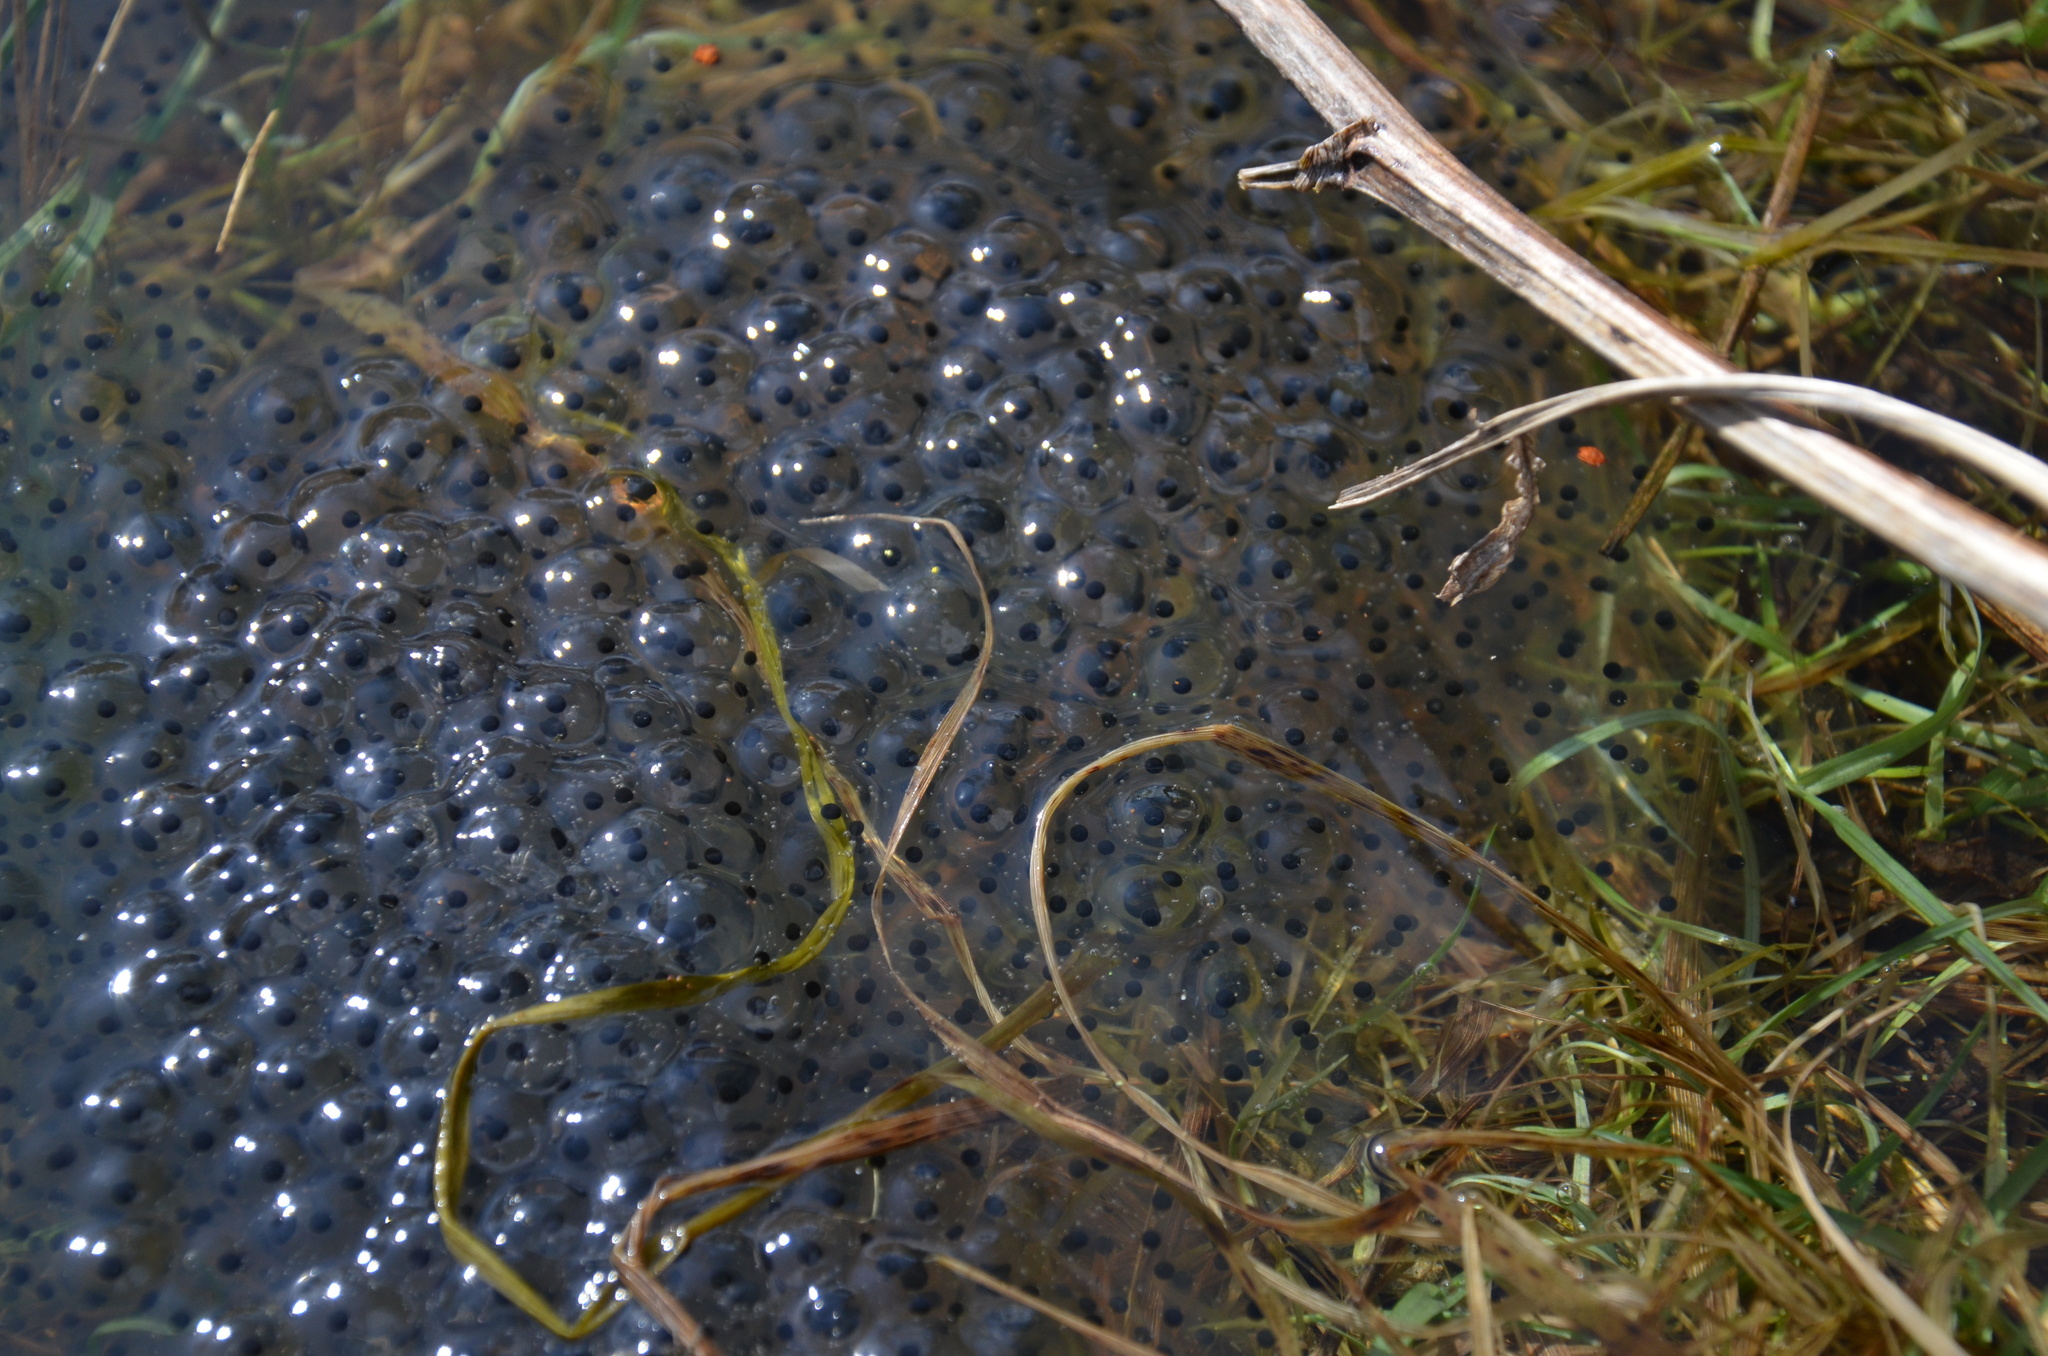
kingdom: Animalia
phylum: Chordata
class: Amphibia
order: Anura
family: Ranidae
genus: Rana
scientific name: Rana temporaria
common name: Common frog
